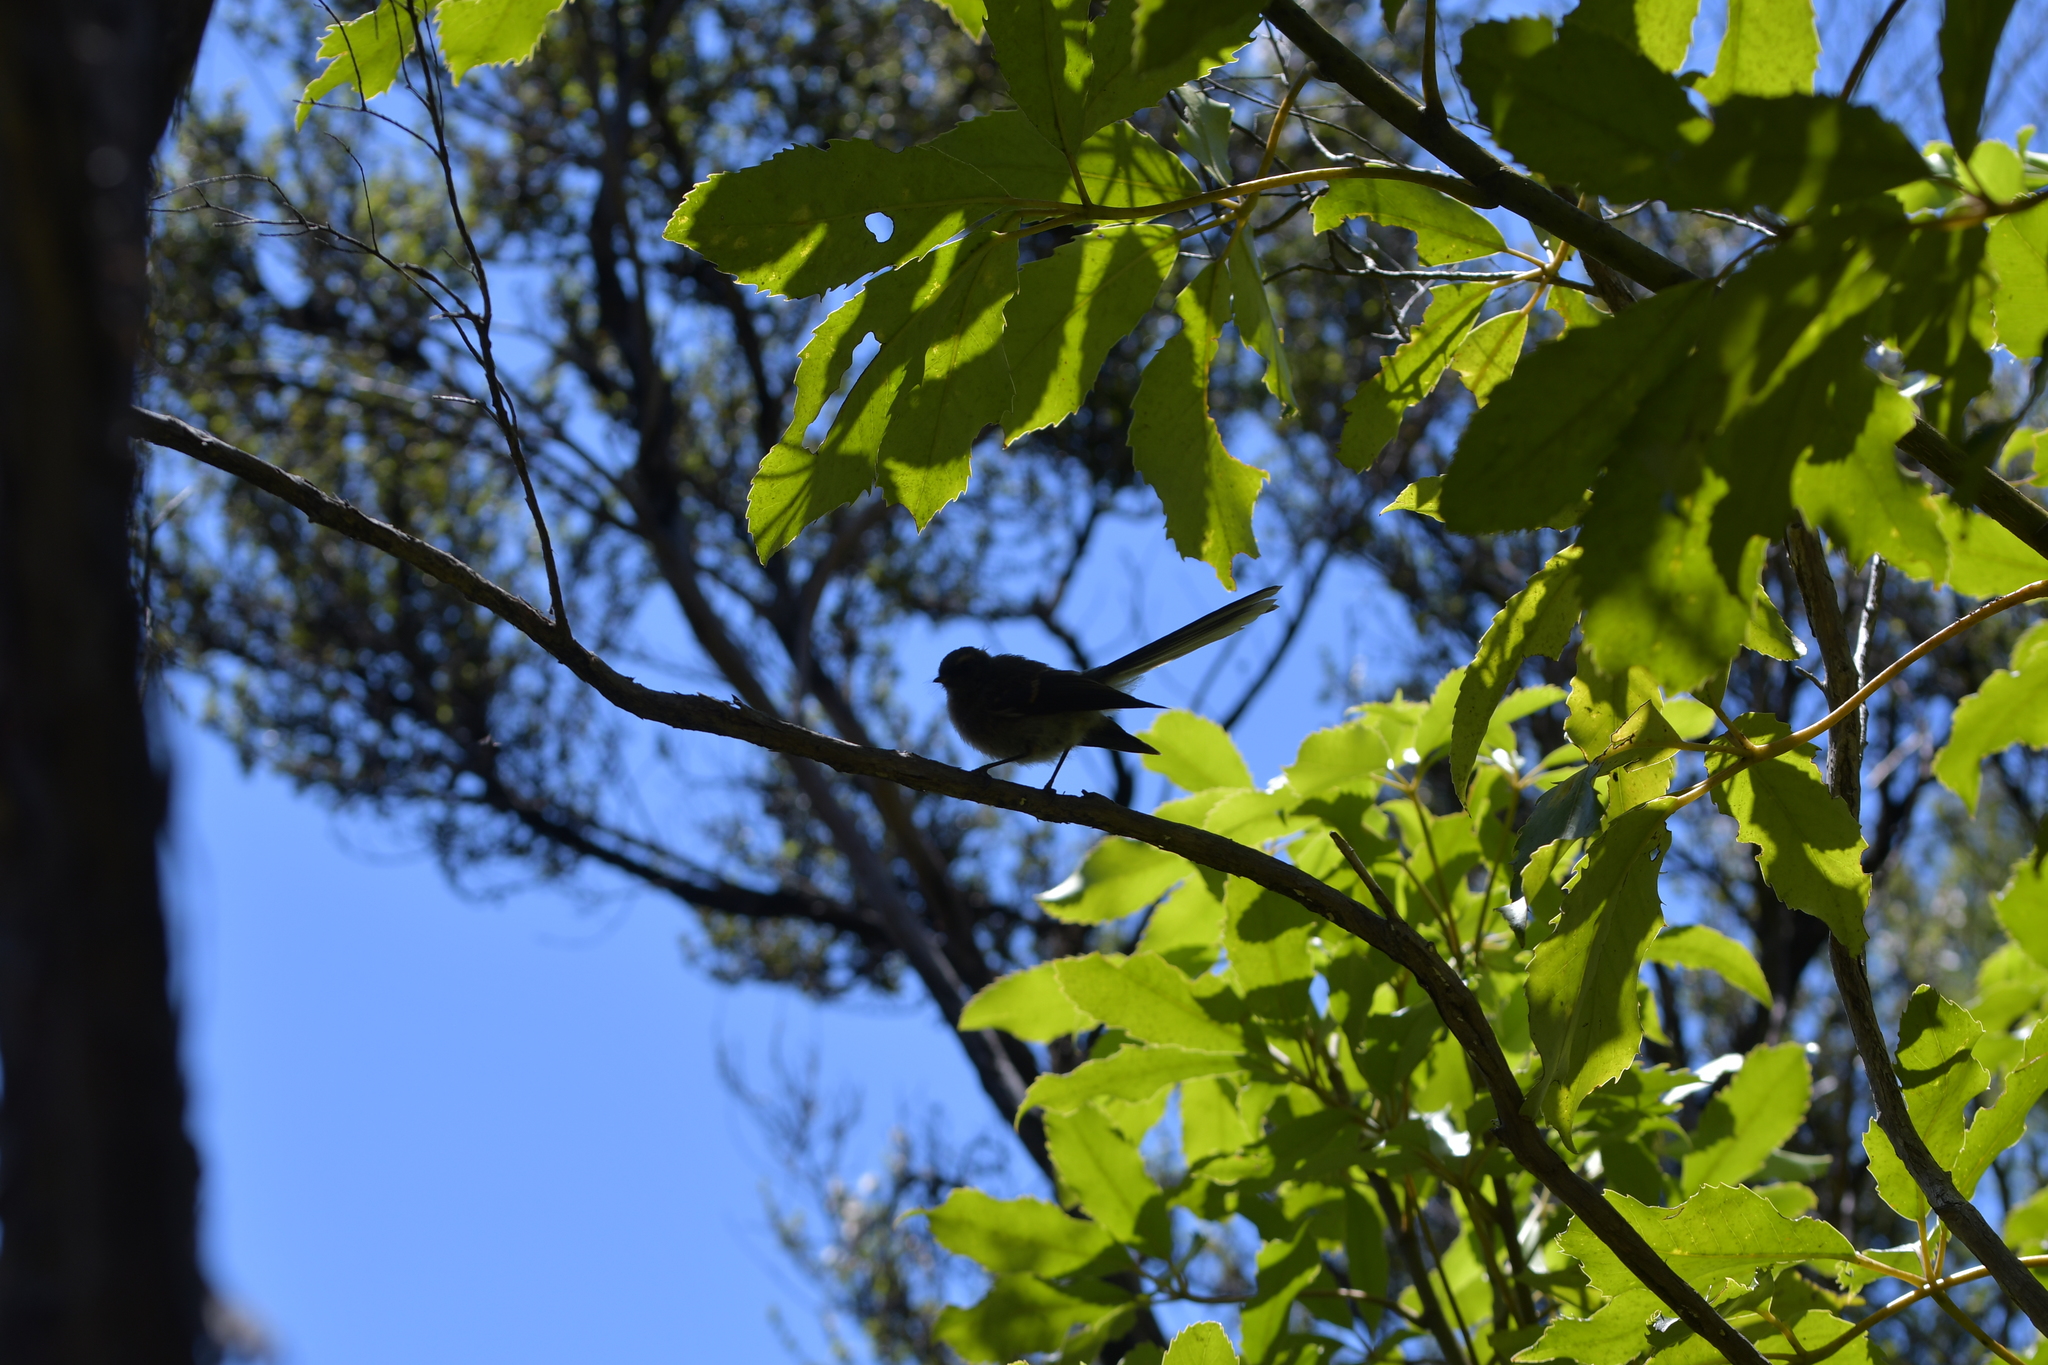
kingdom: Animalia
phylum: Chordata
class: Aves
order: Passeriformes
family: Rhipiduridae
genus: Rhipidura
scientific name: Rhipidura fuliginosa
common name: New zealand fantail
